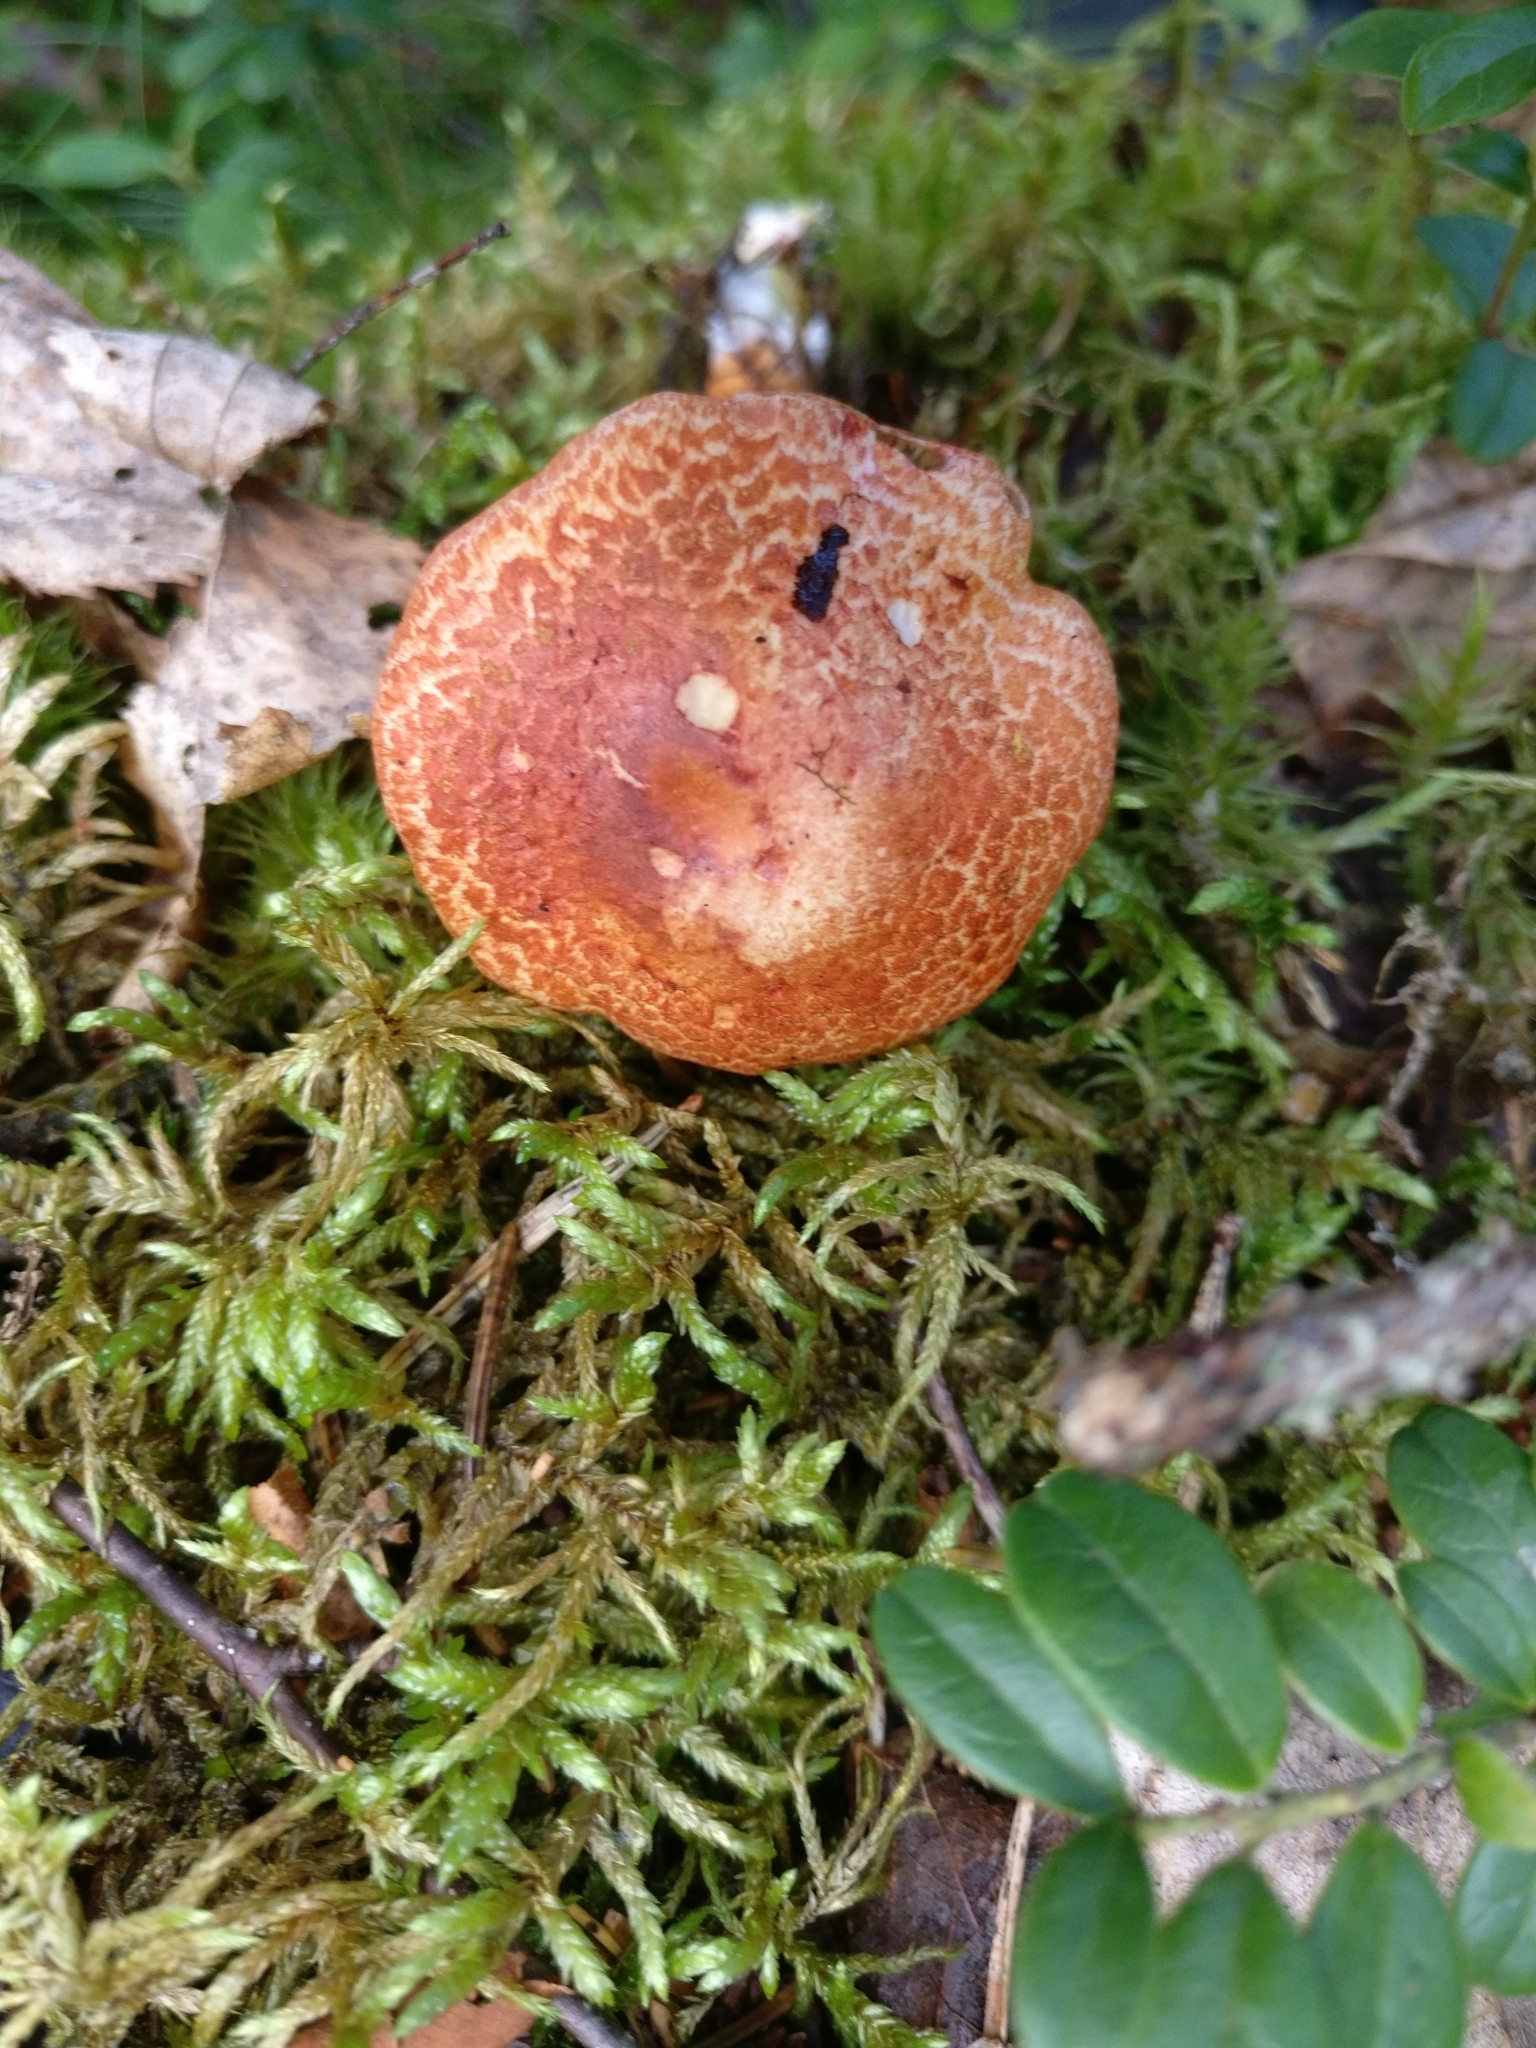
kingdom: Fungi
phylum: Basidiomycota
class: Agaricomycetes
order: Agaricales
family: Cortinariaceae
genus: Cortinarius
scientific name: Cortinarius bolaris
